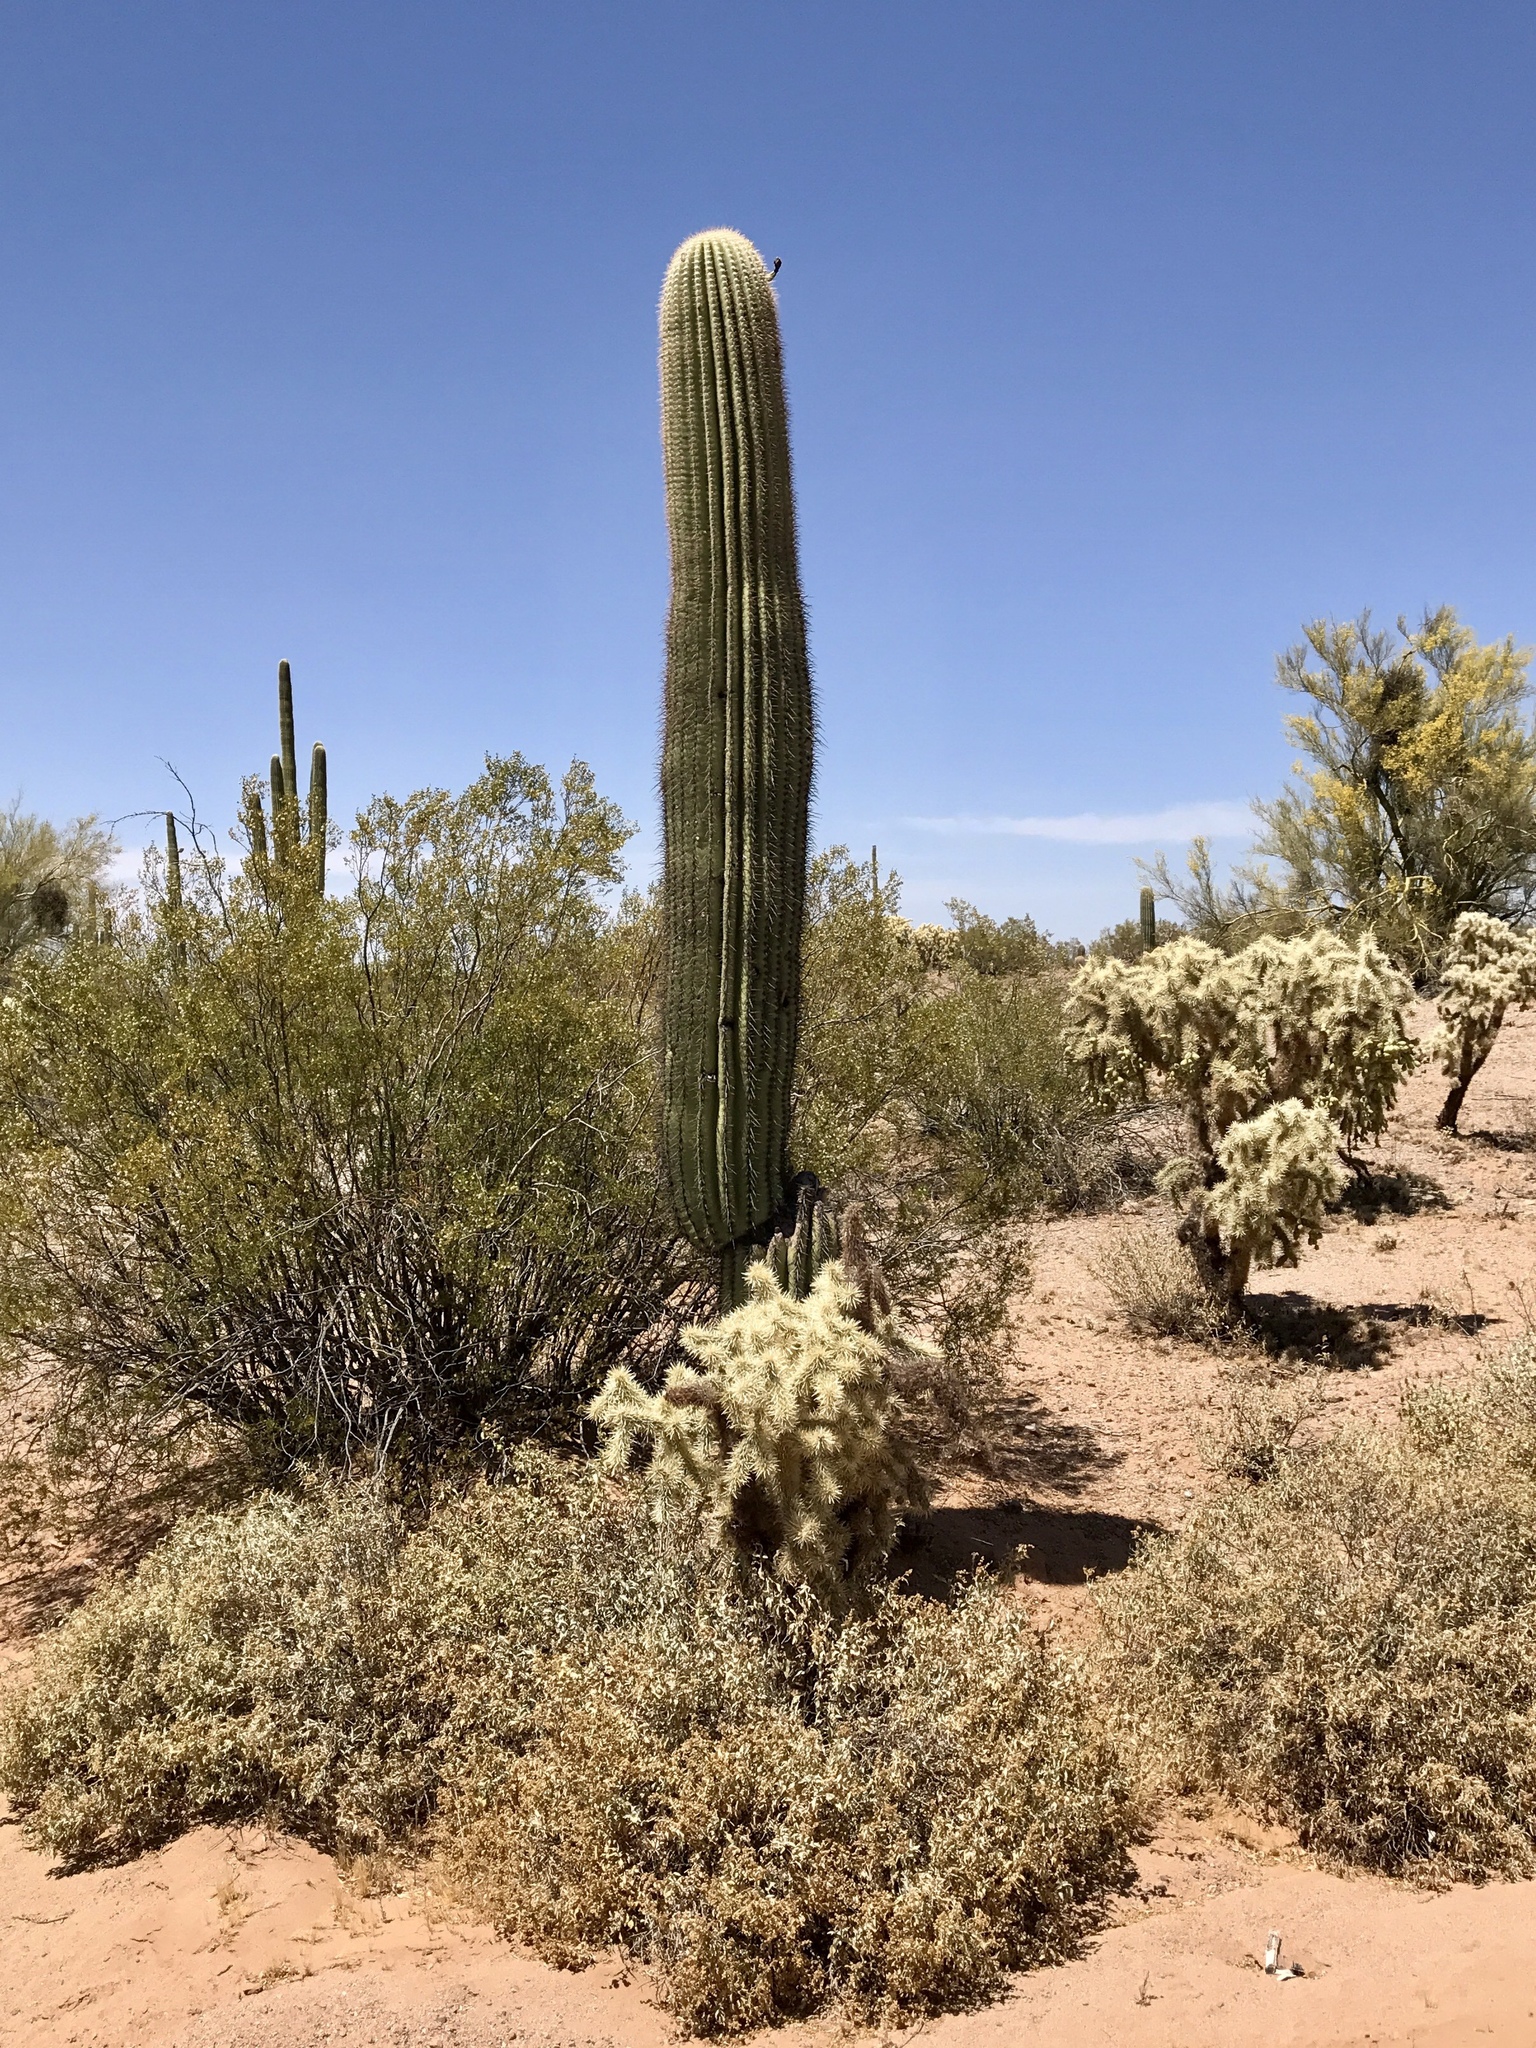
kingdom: Plantae
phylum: Tracheophyta
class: Magnoliopsida
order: Zygophyllales
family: Zygophyllaceae
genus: Larrea
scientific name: Larrea tridentata
